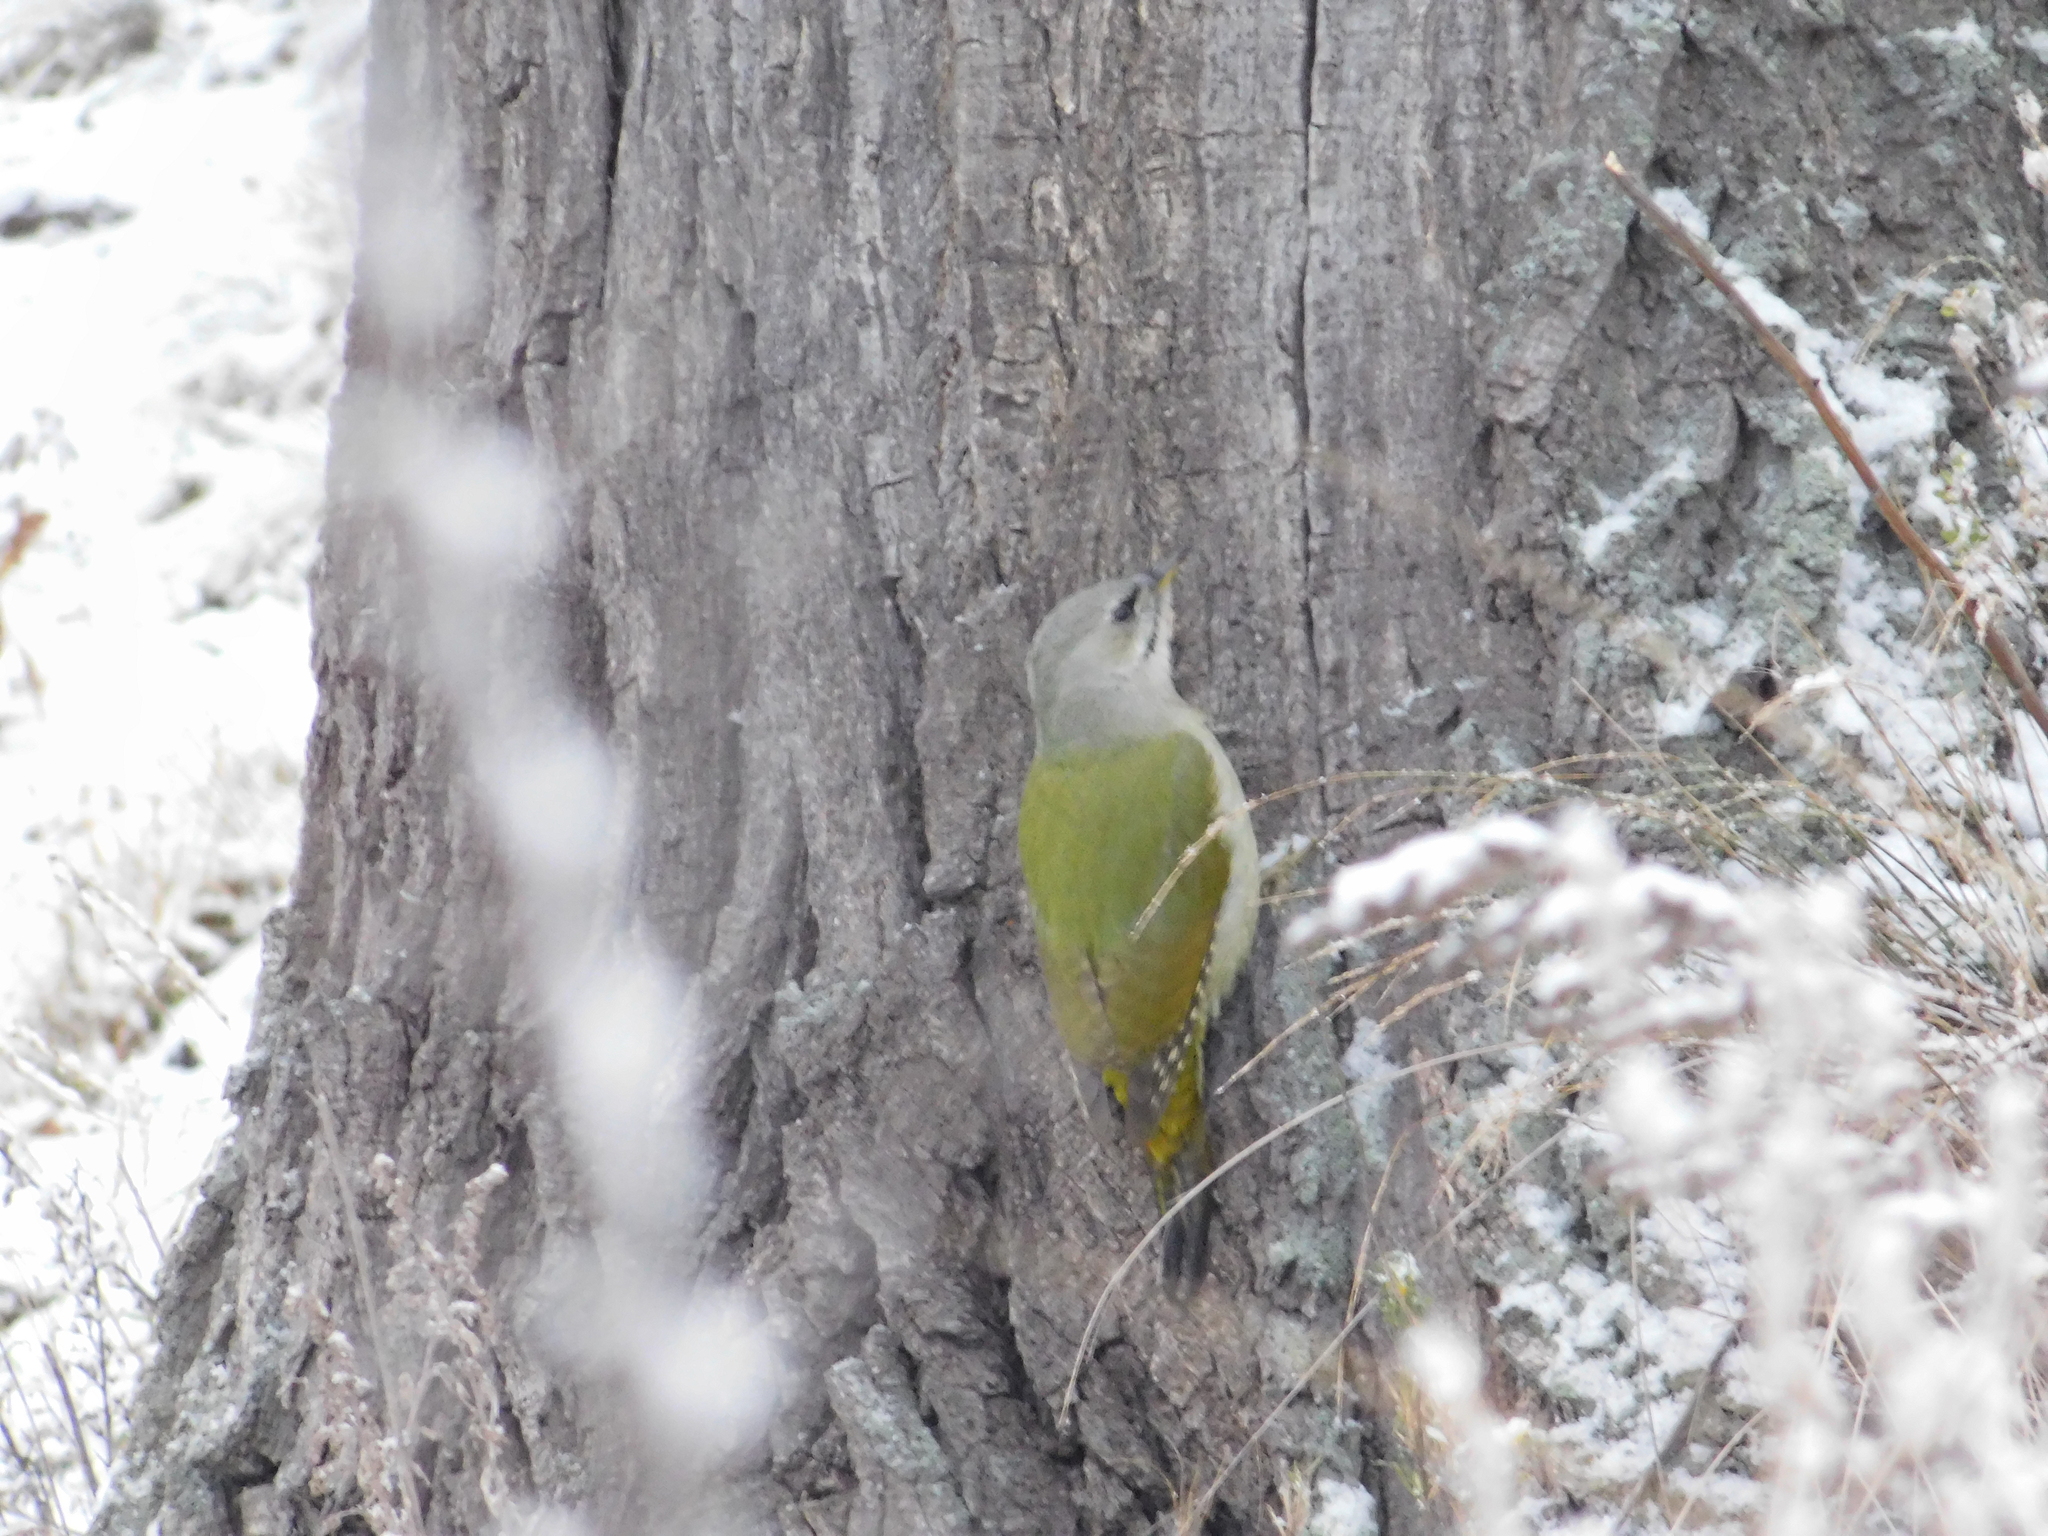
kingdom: Animalia
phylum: Chordata
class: Aves
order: Piciformes
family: Picidae
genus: Picus
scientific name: Picus canus
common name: Grey-headed woodpecker
